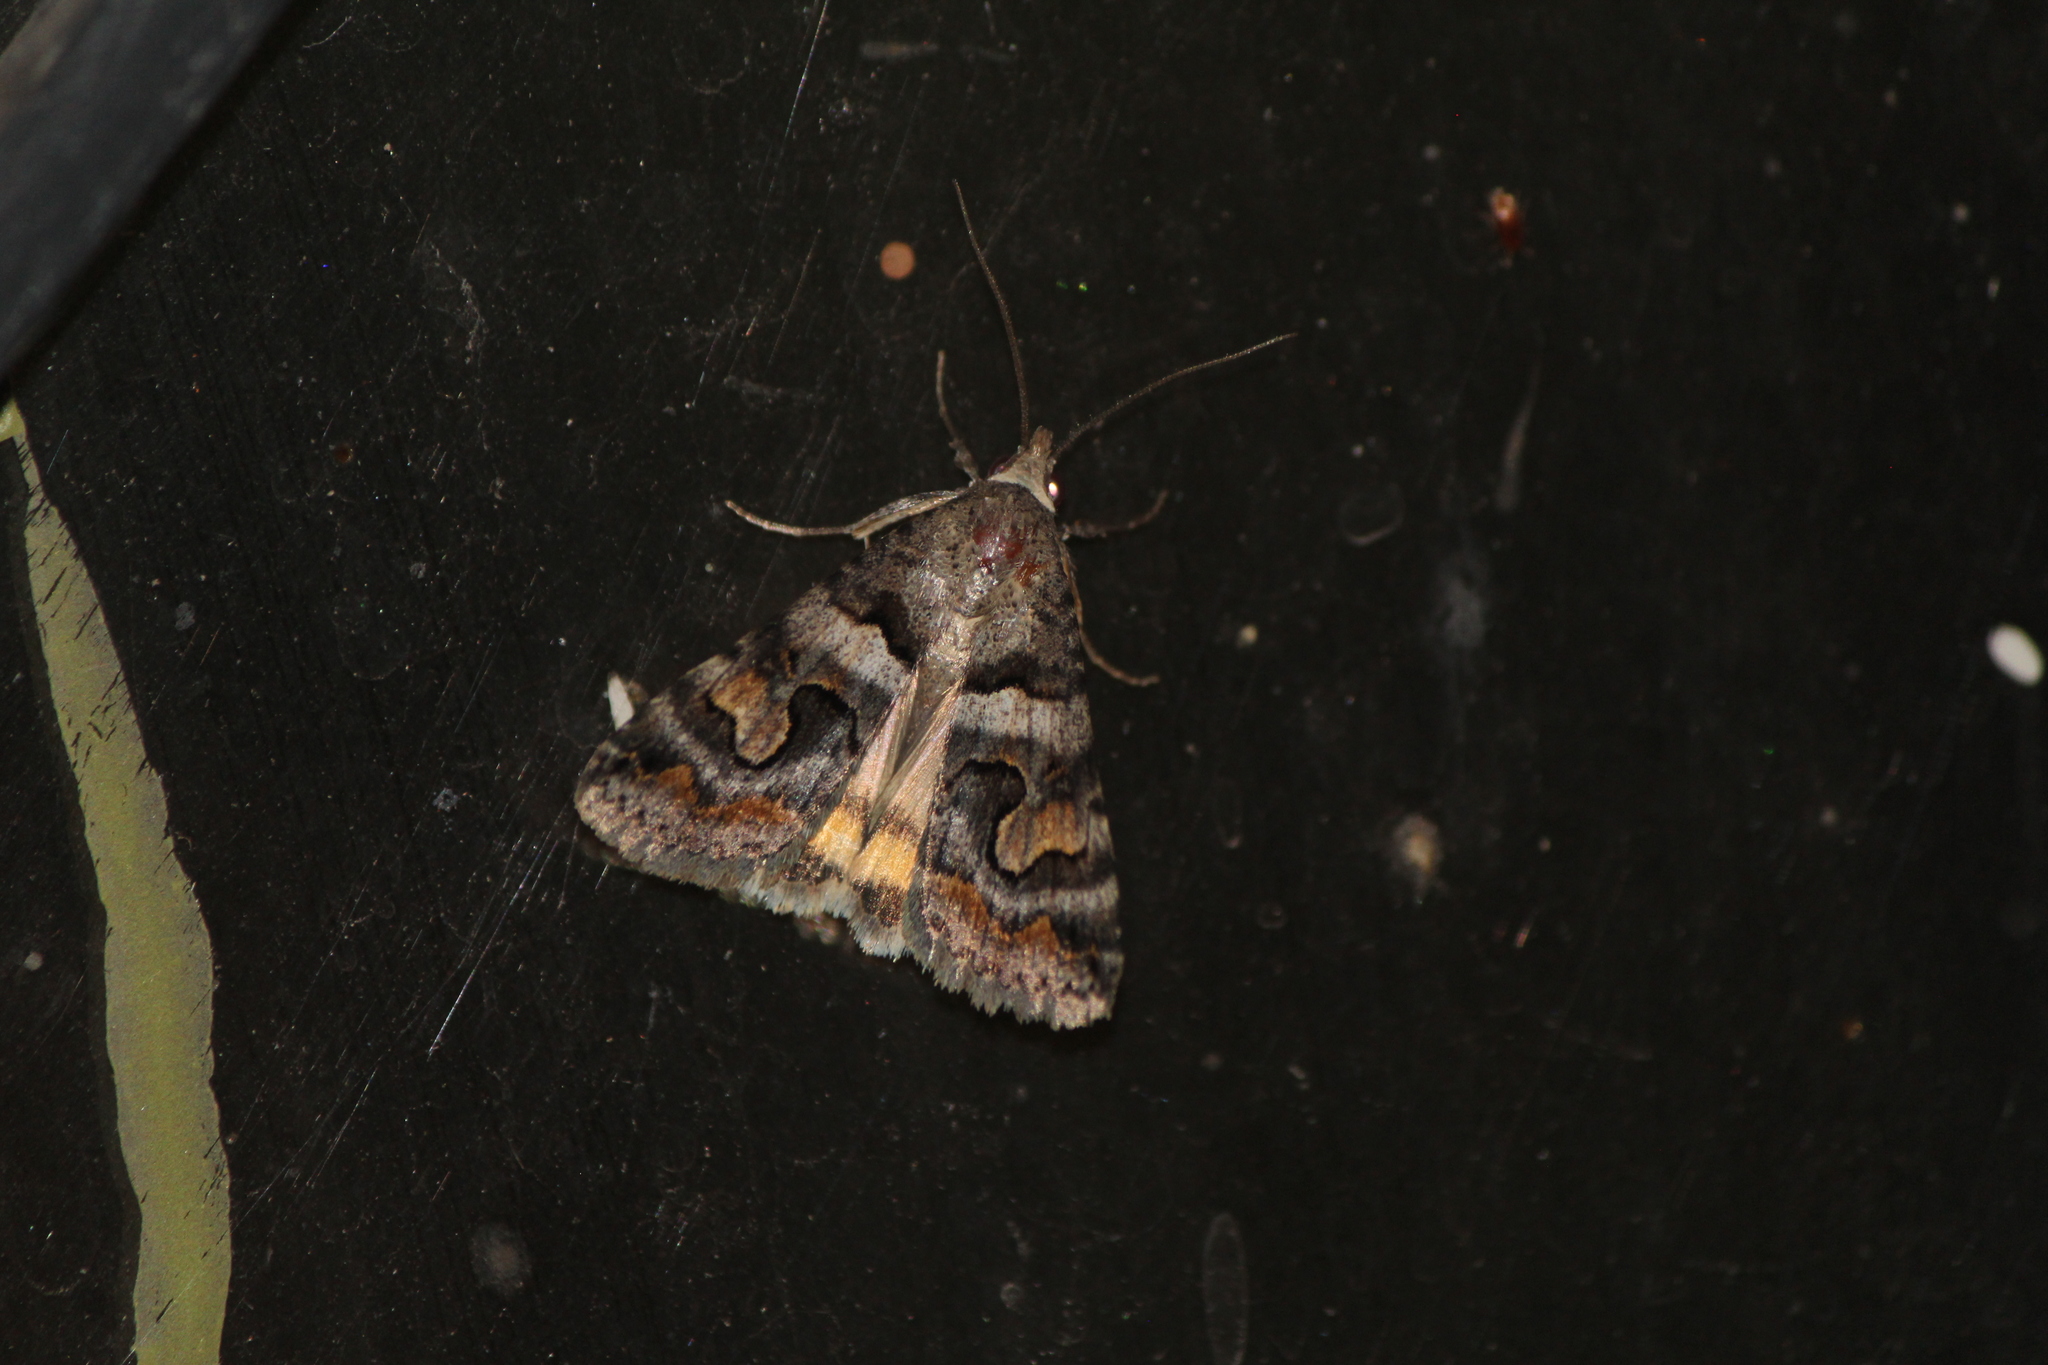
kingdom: Animalia
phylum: Arthropoda
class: Insecta
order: Lepidoptera
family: Erebidae
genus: Bulia
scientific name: Bulia deducta
